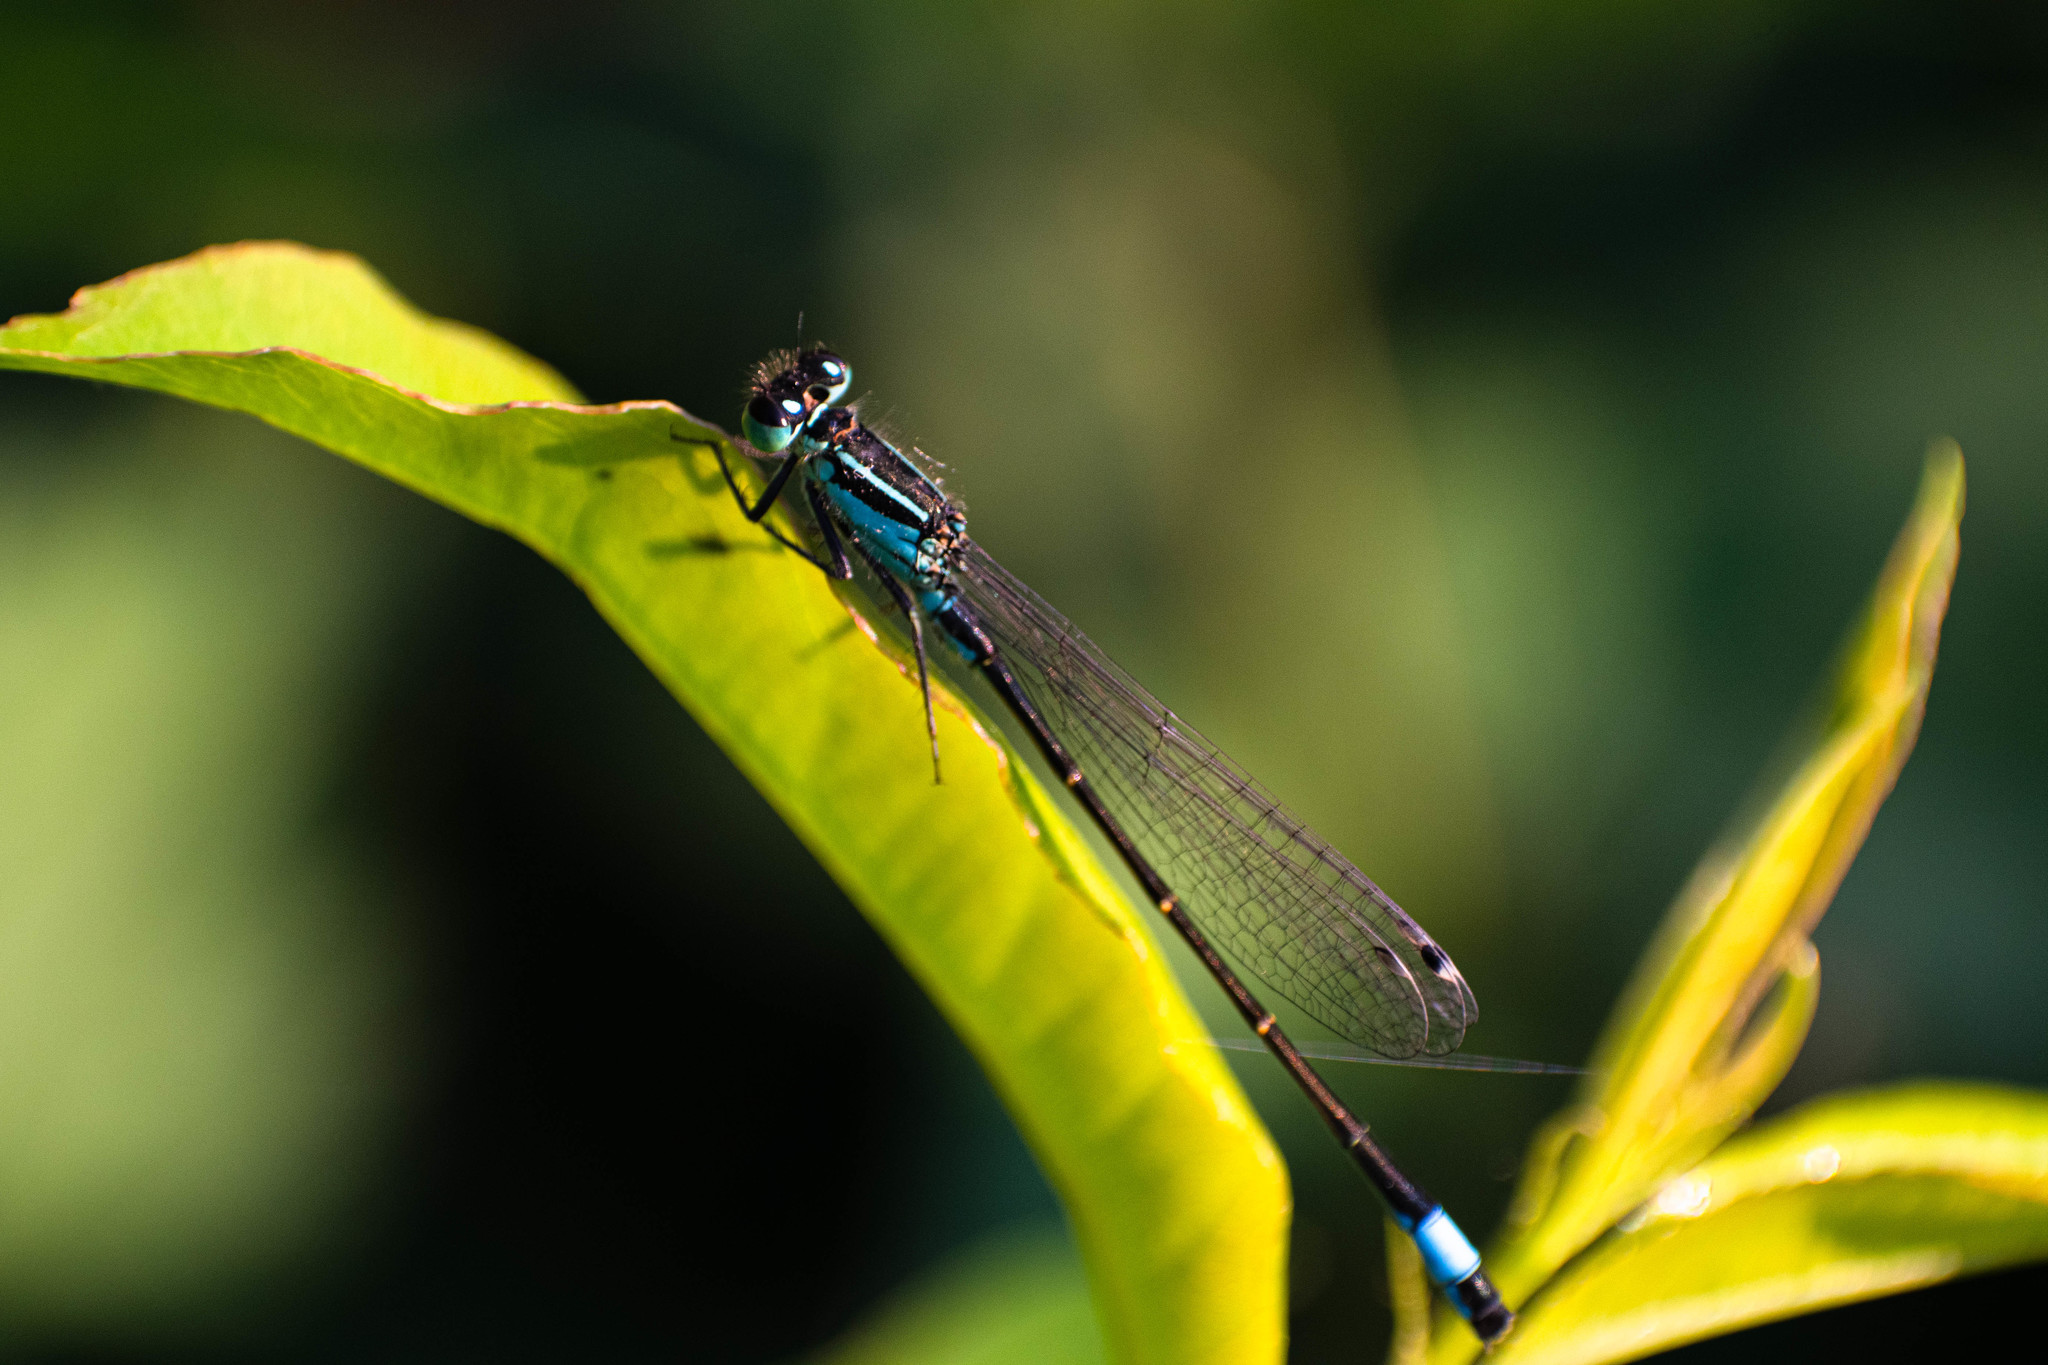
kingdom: Animalia
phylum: Arthropoda
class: Insecta
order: Odonata
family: Coenagrionidae
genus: Ischnura
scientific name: Ischnura elegans
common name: Blue-tailed damselfly
